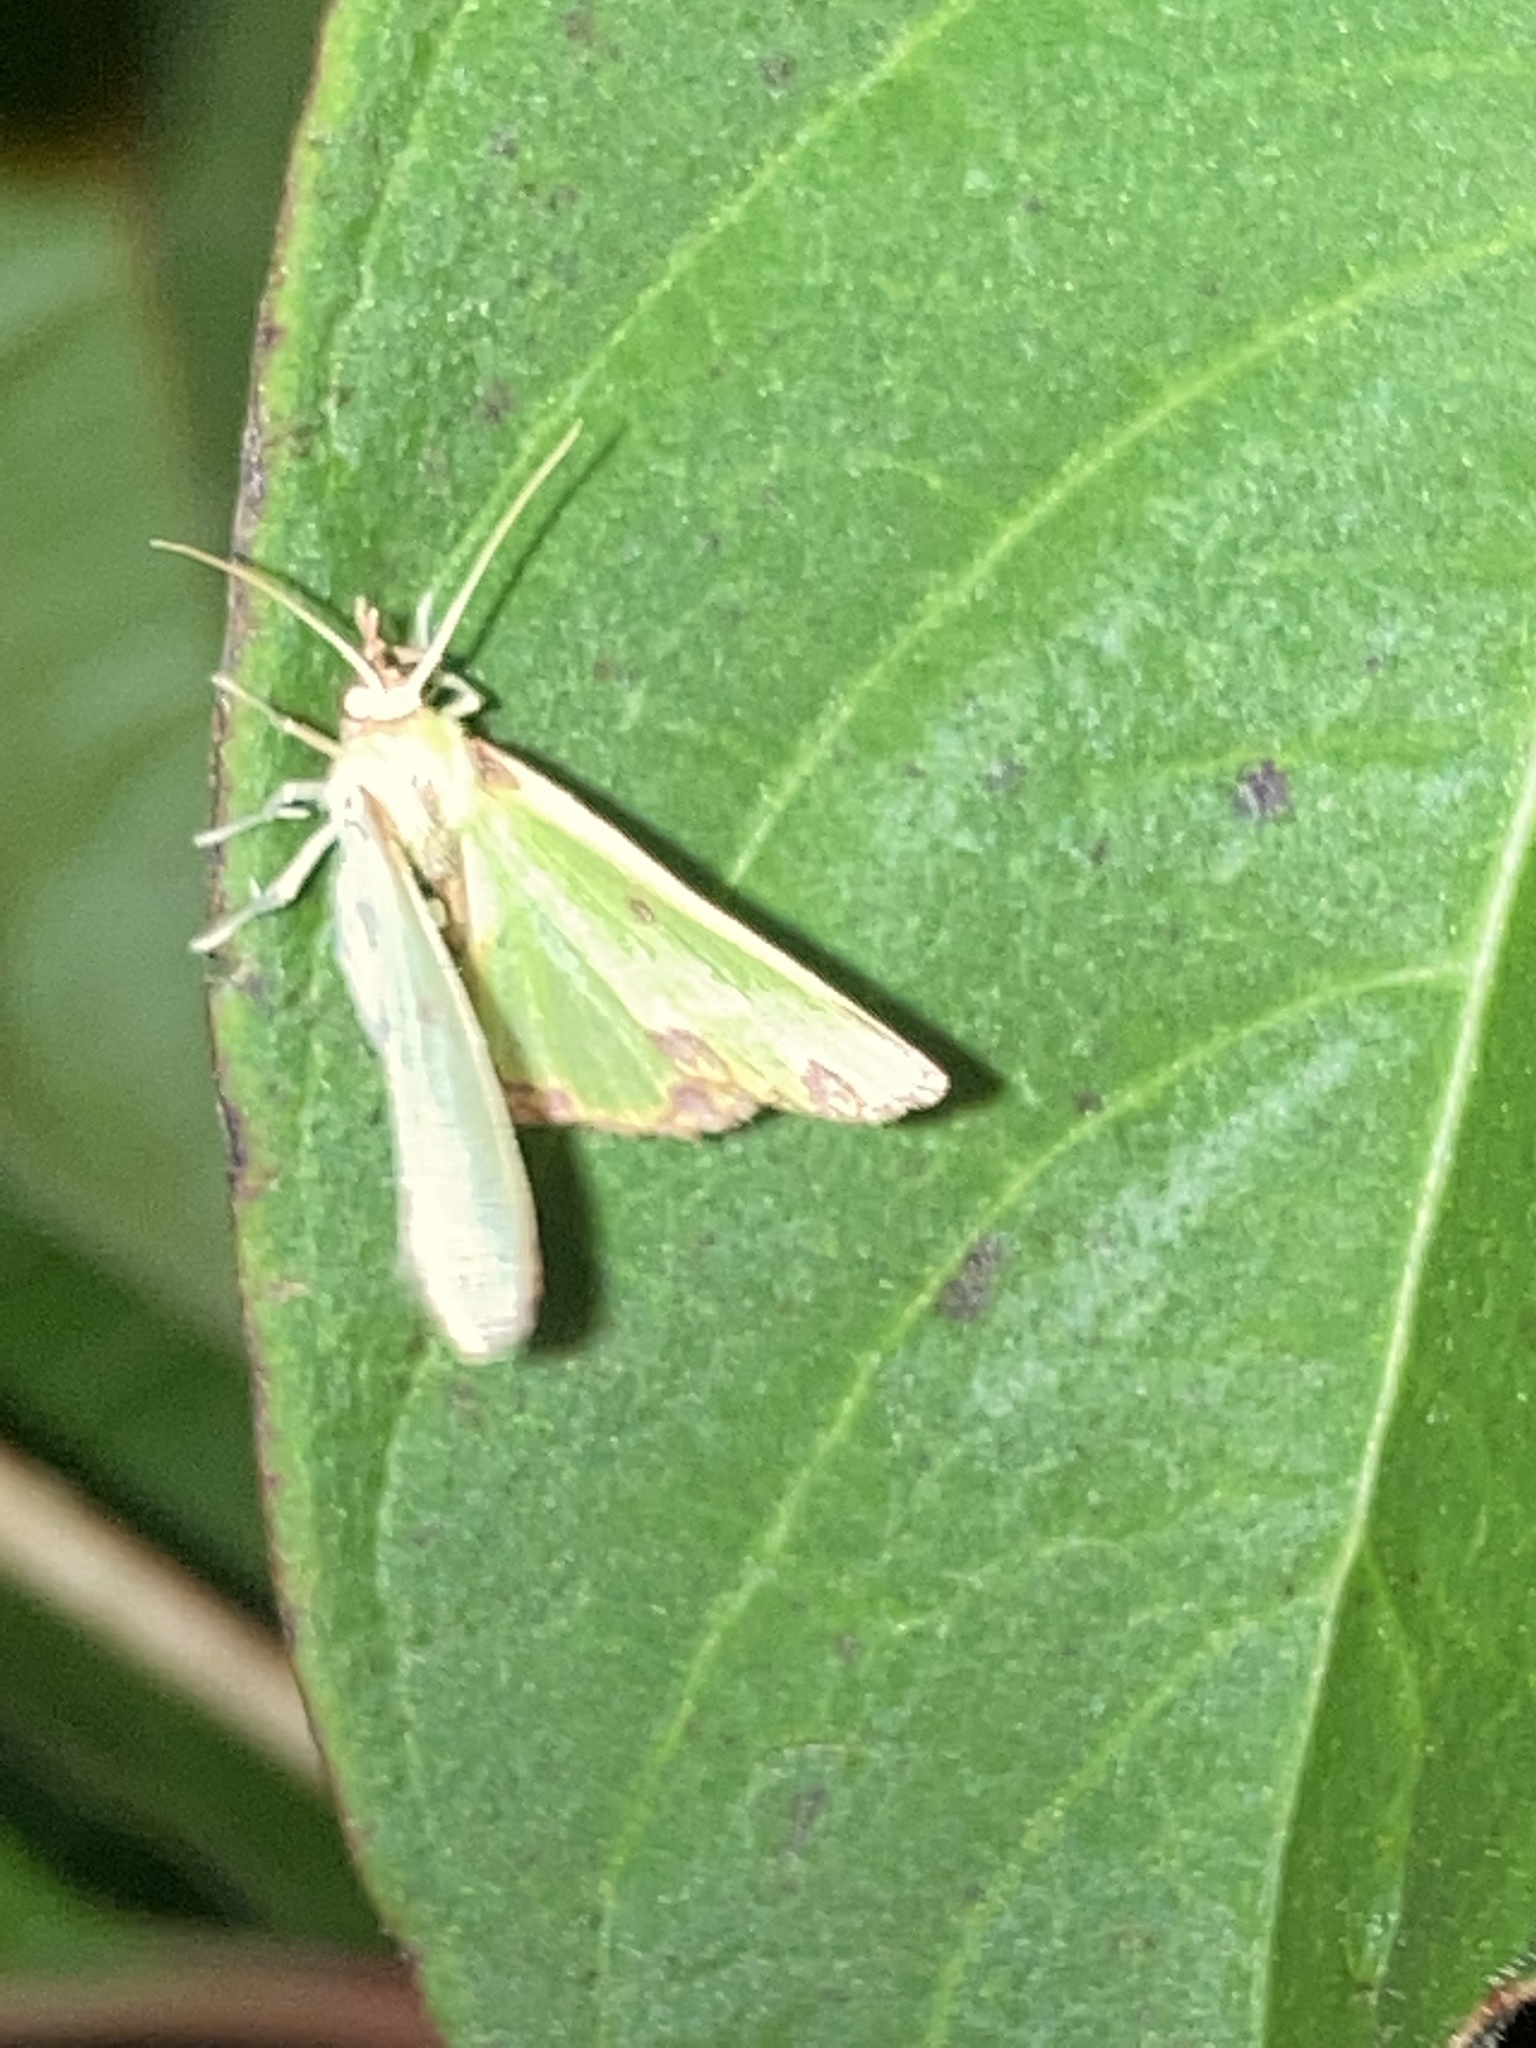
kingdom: Animalia
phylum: Arthropoda
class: Insecta
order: Lepidoptera
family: Geometridae
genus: Synchlora
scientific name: Synchlora xysteraria
